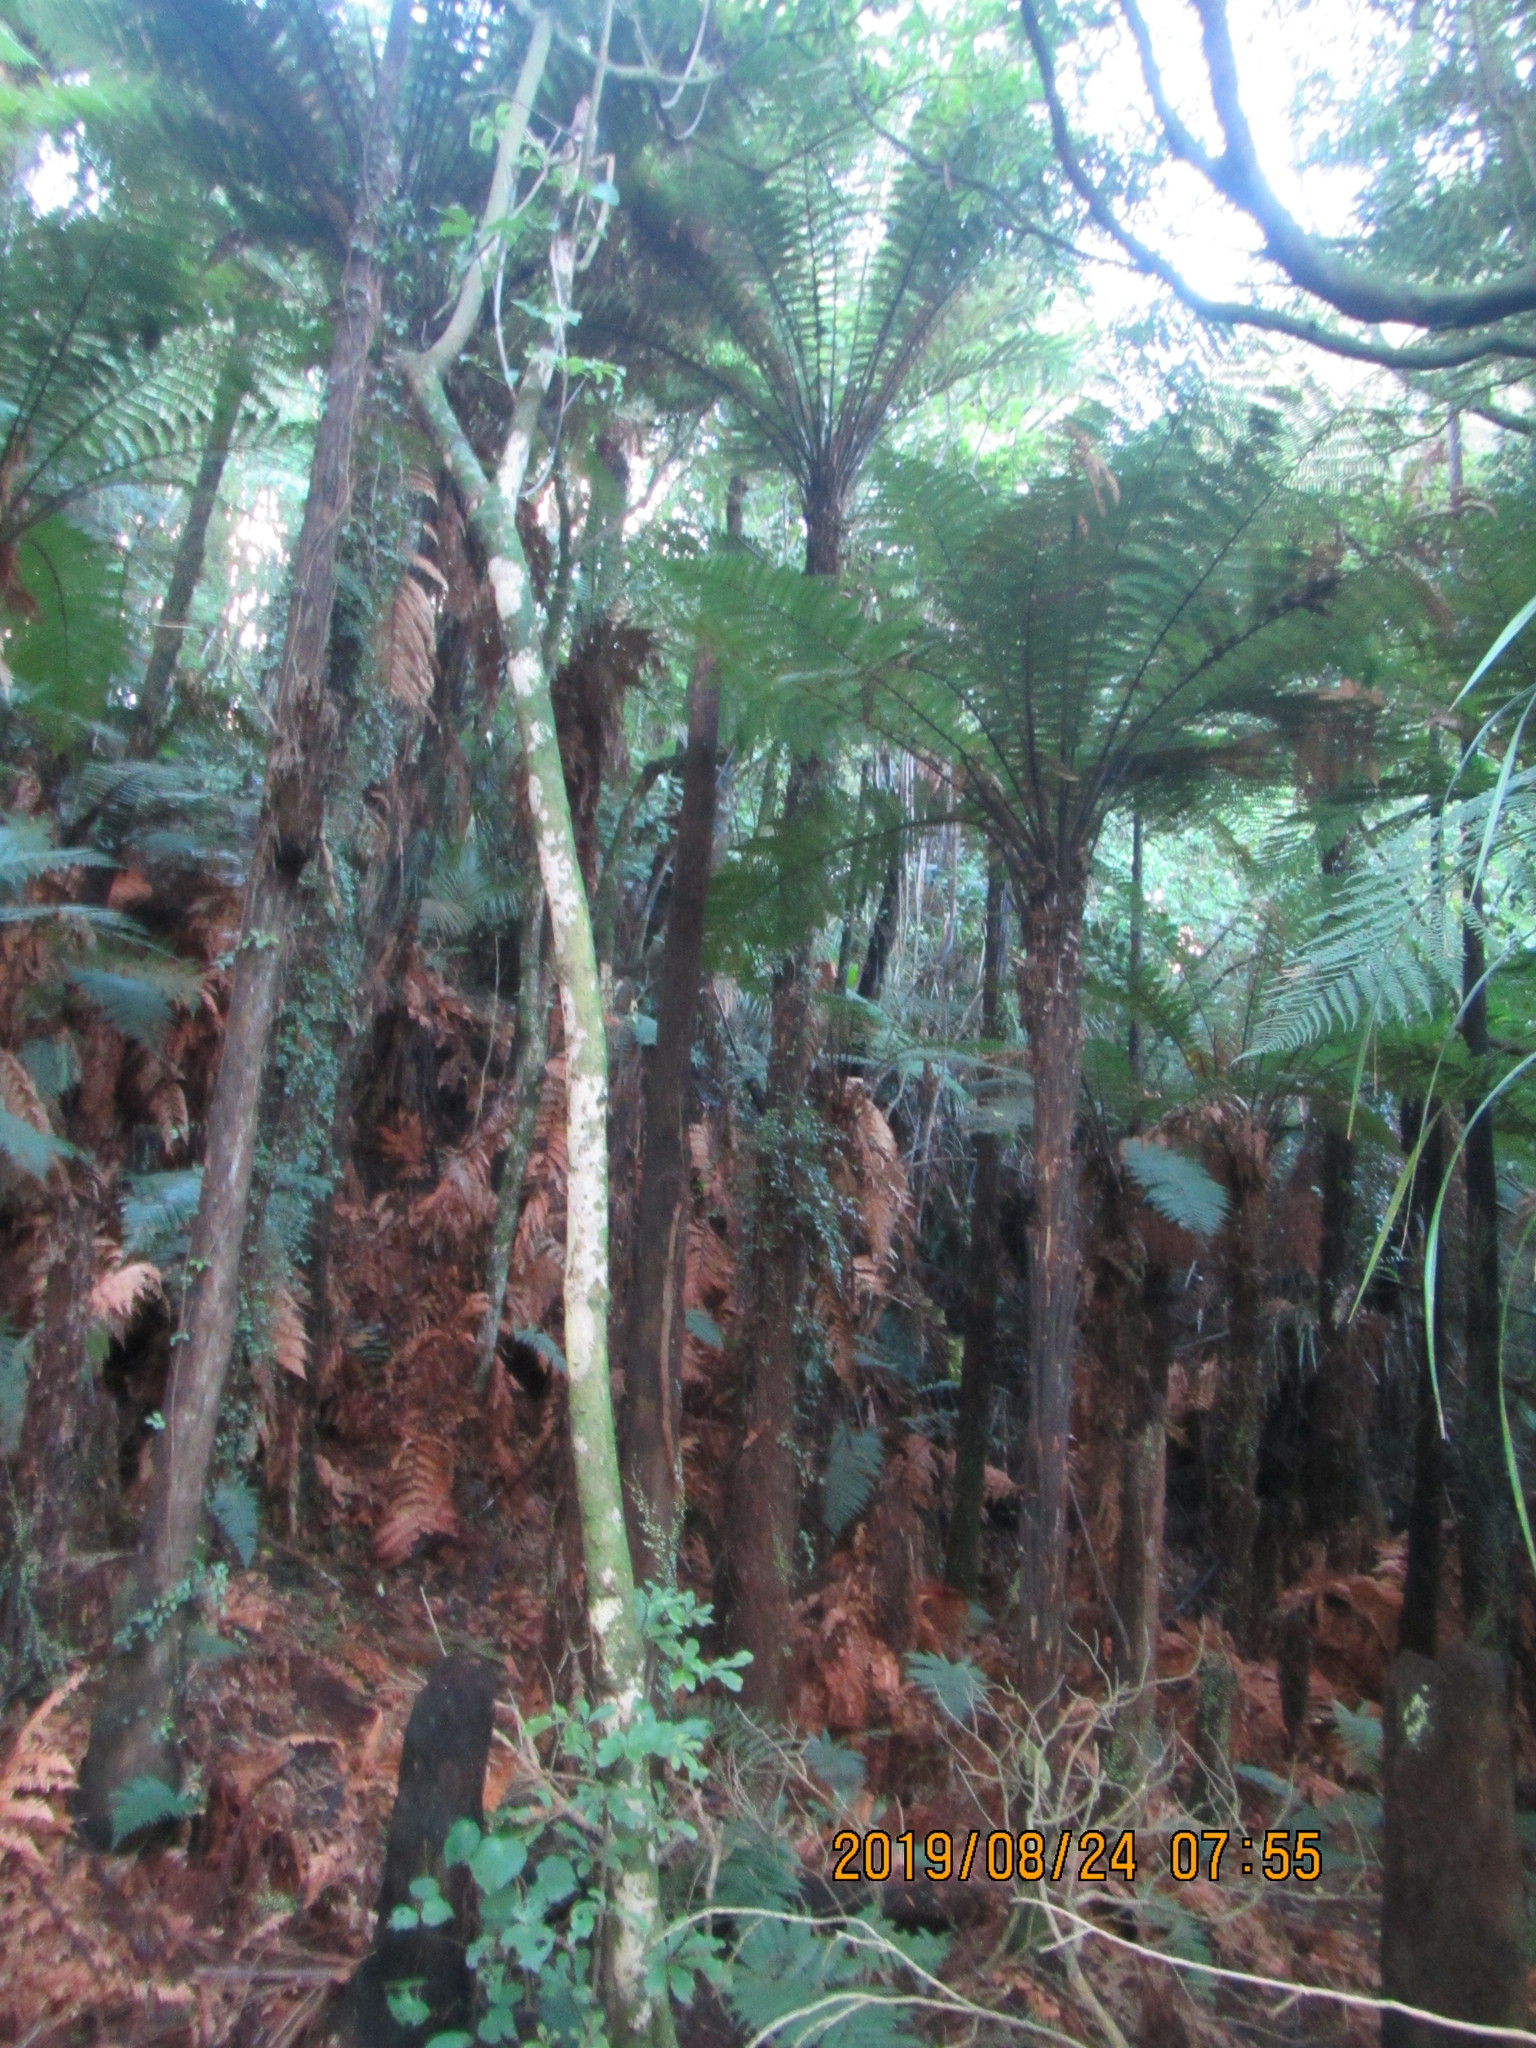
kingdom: Plantae
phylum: Tracheophyta
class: Polypodiopsida
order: Cyatheales
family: Dicksoniaceae
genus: Dicksonia
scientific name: Dicksonia squarrosa
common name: Hard treefern
